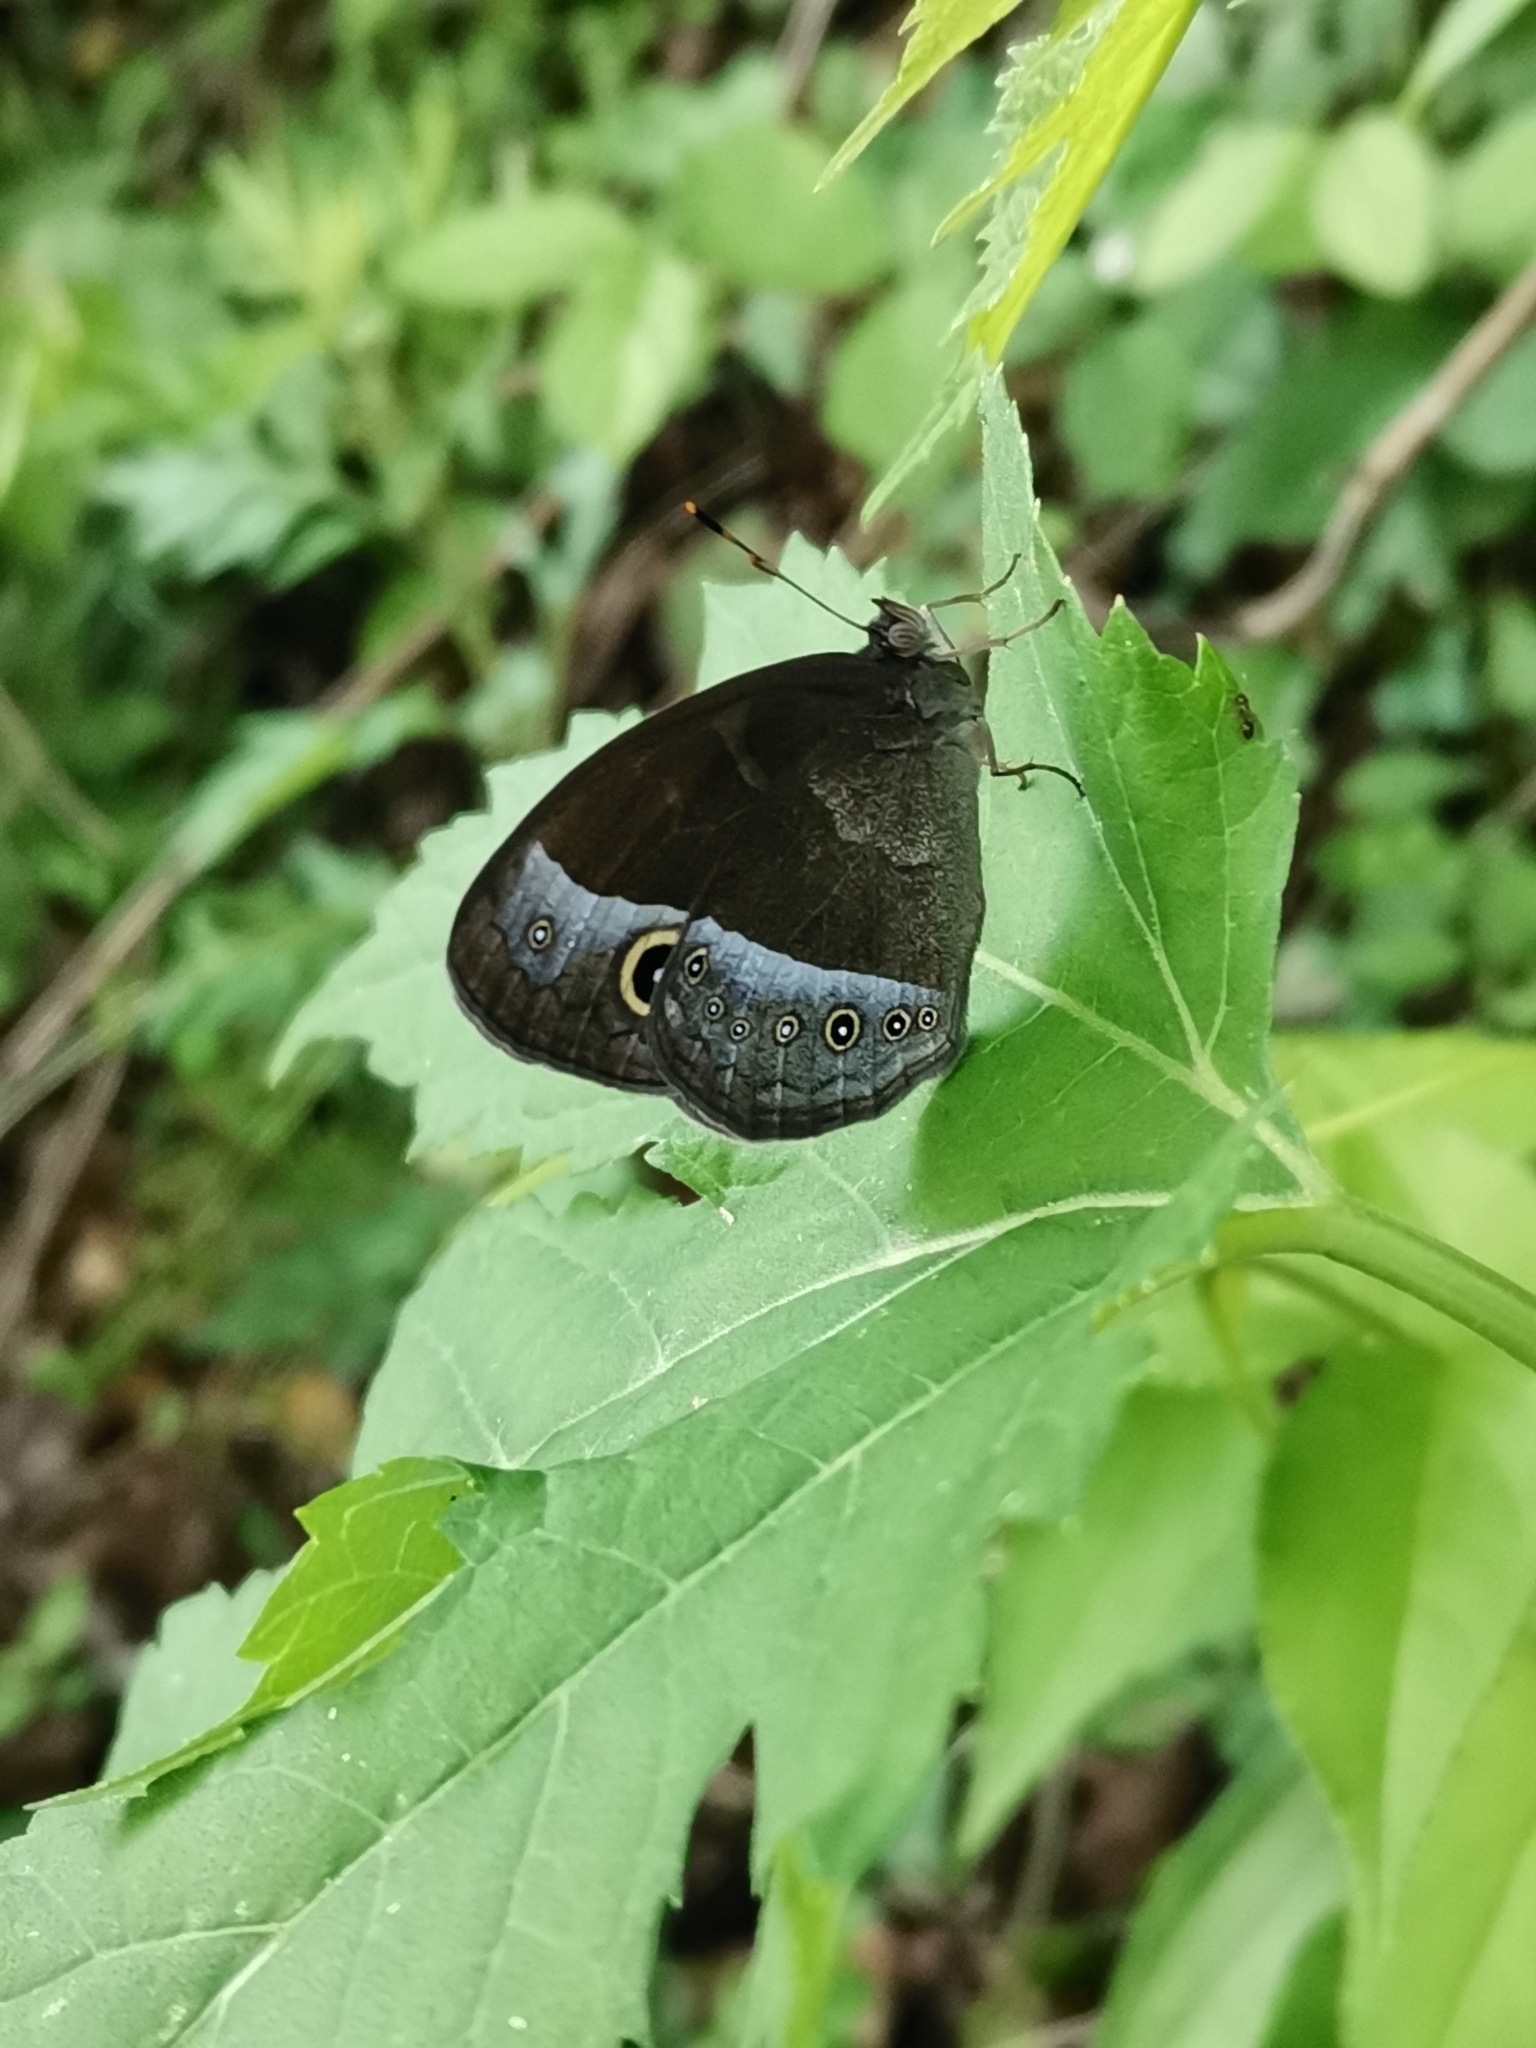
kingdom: Animalia
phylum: Arthropoda
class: Insecta
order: Lepidoptera
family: Nymphalidae
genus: Mycalesis
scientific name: Mycalesis francisca
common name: Lilacine bushbrown
